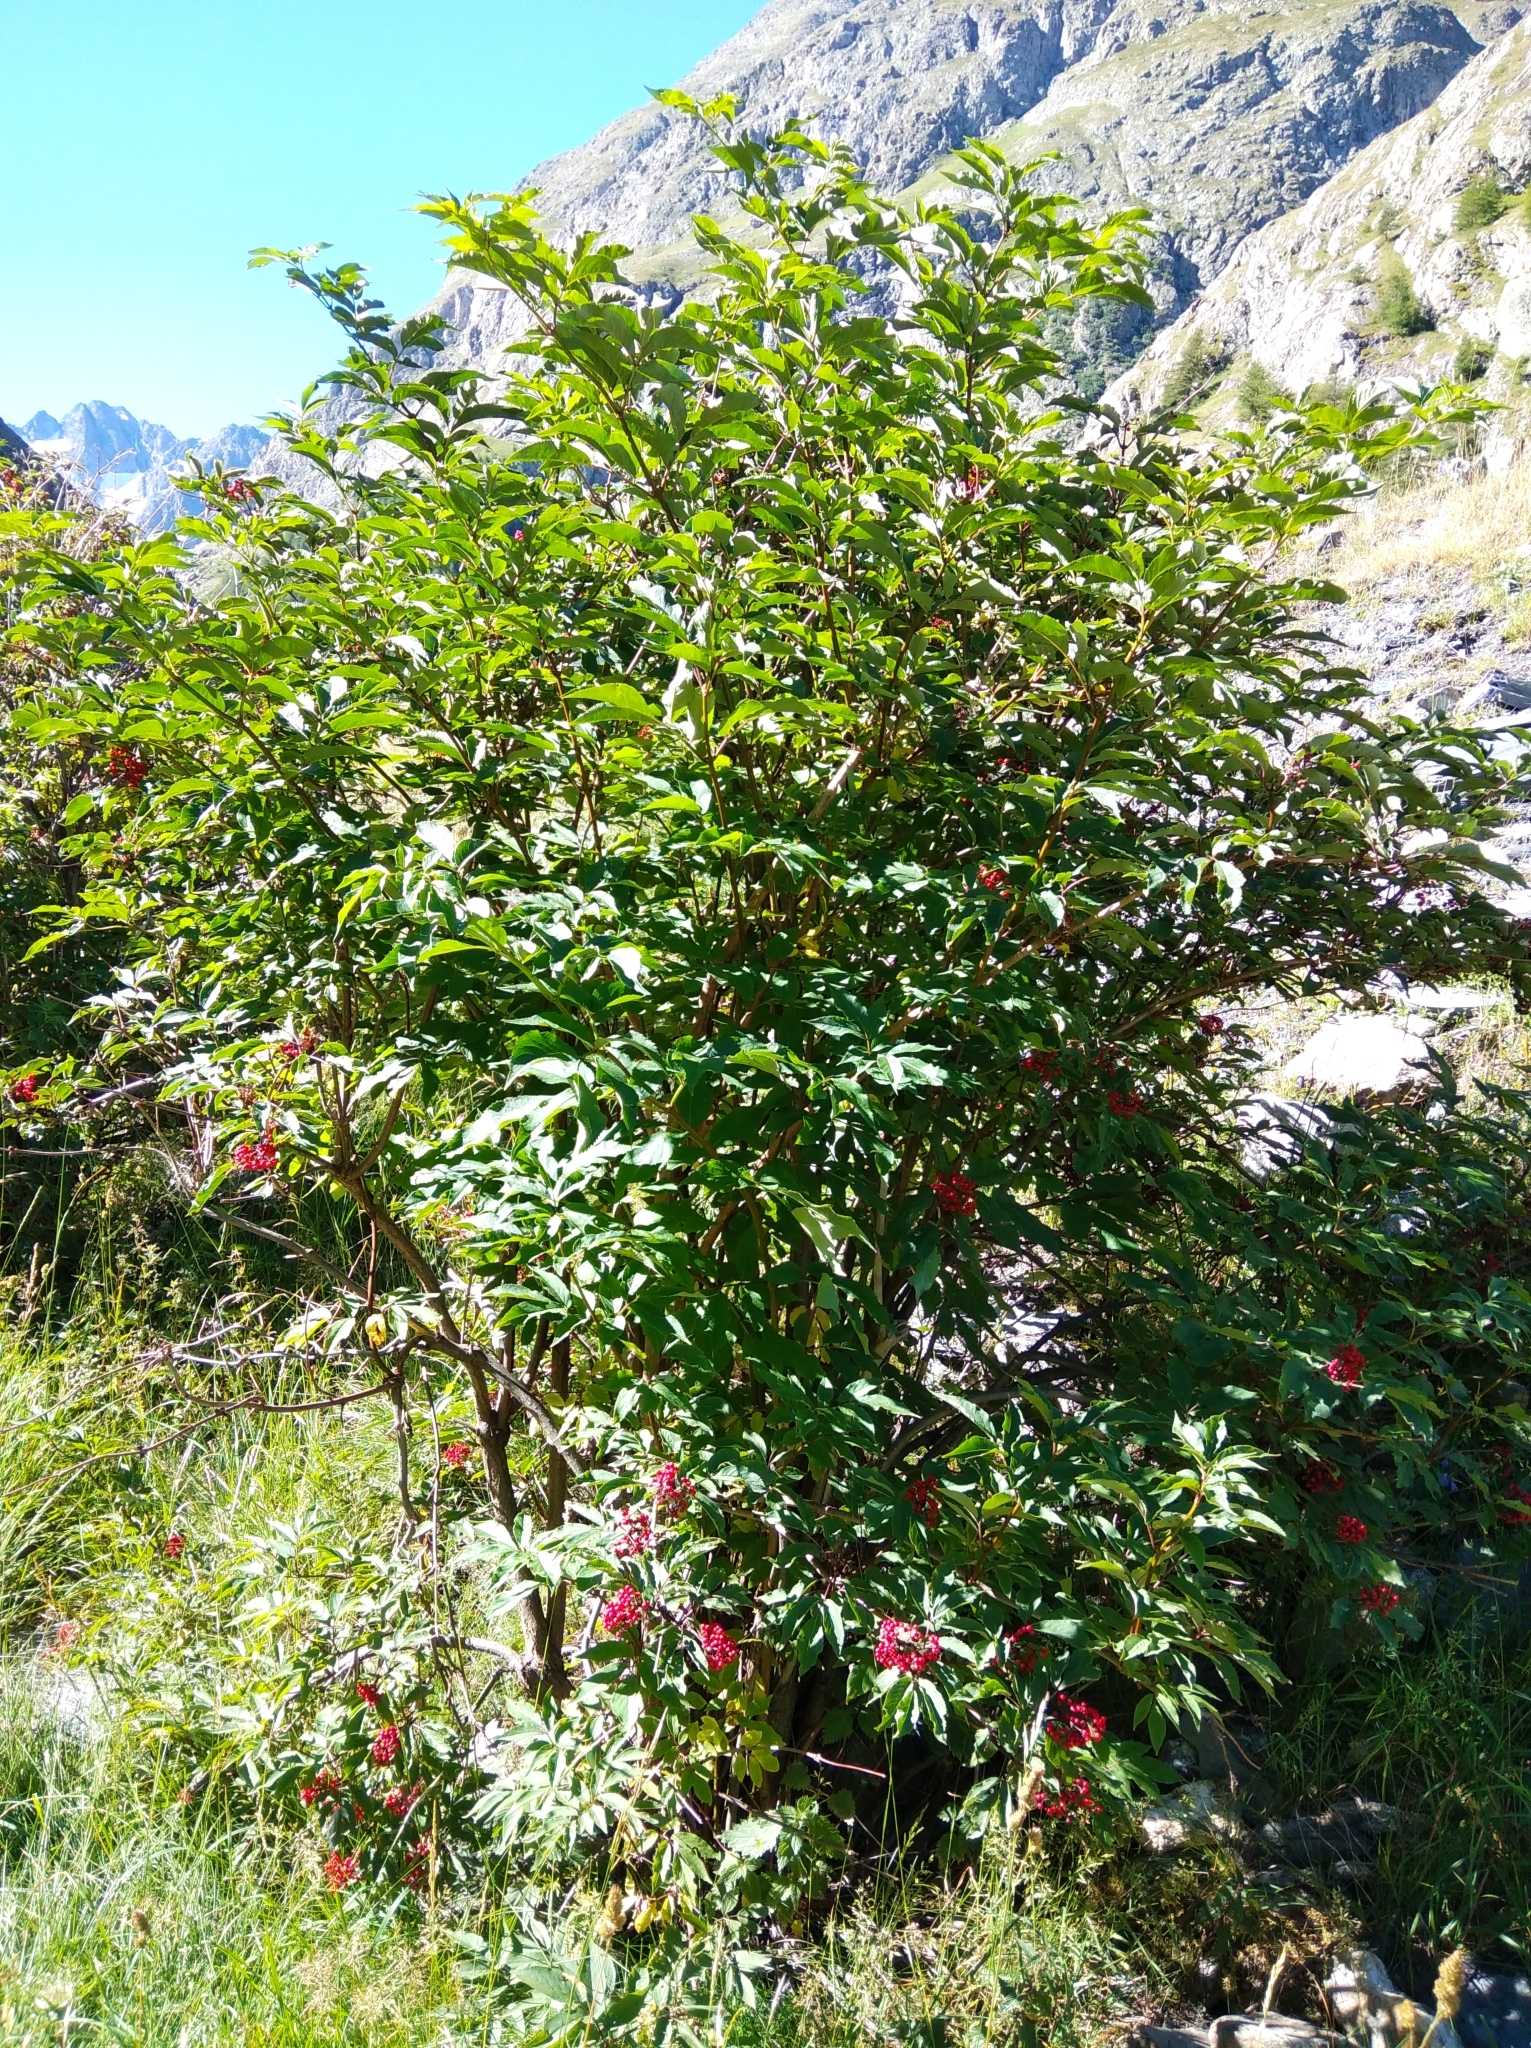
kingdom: Plantae
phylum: Tracheophyta
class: Magnoliopsida
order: Dipsacales
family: Viburnaceae
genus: Sambucus
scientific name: Sambucus racemosa
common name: Red-berried elder
